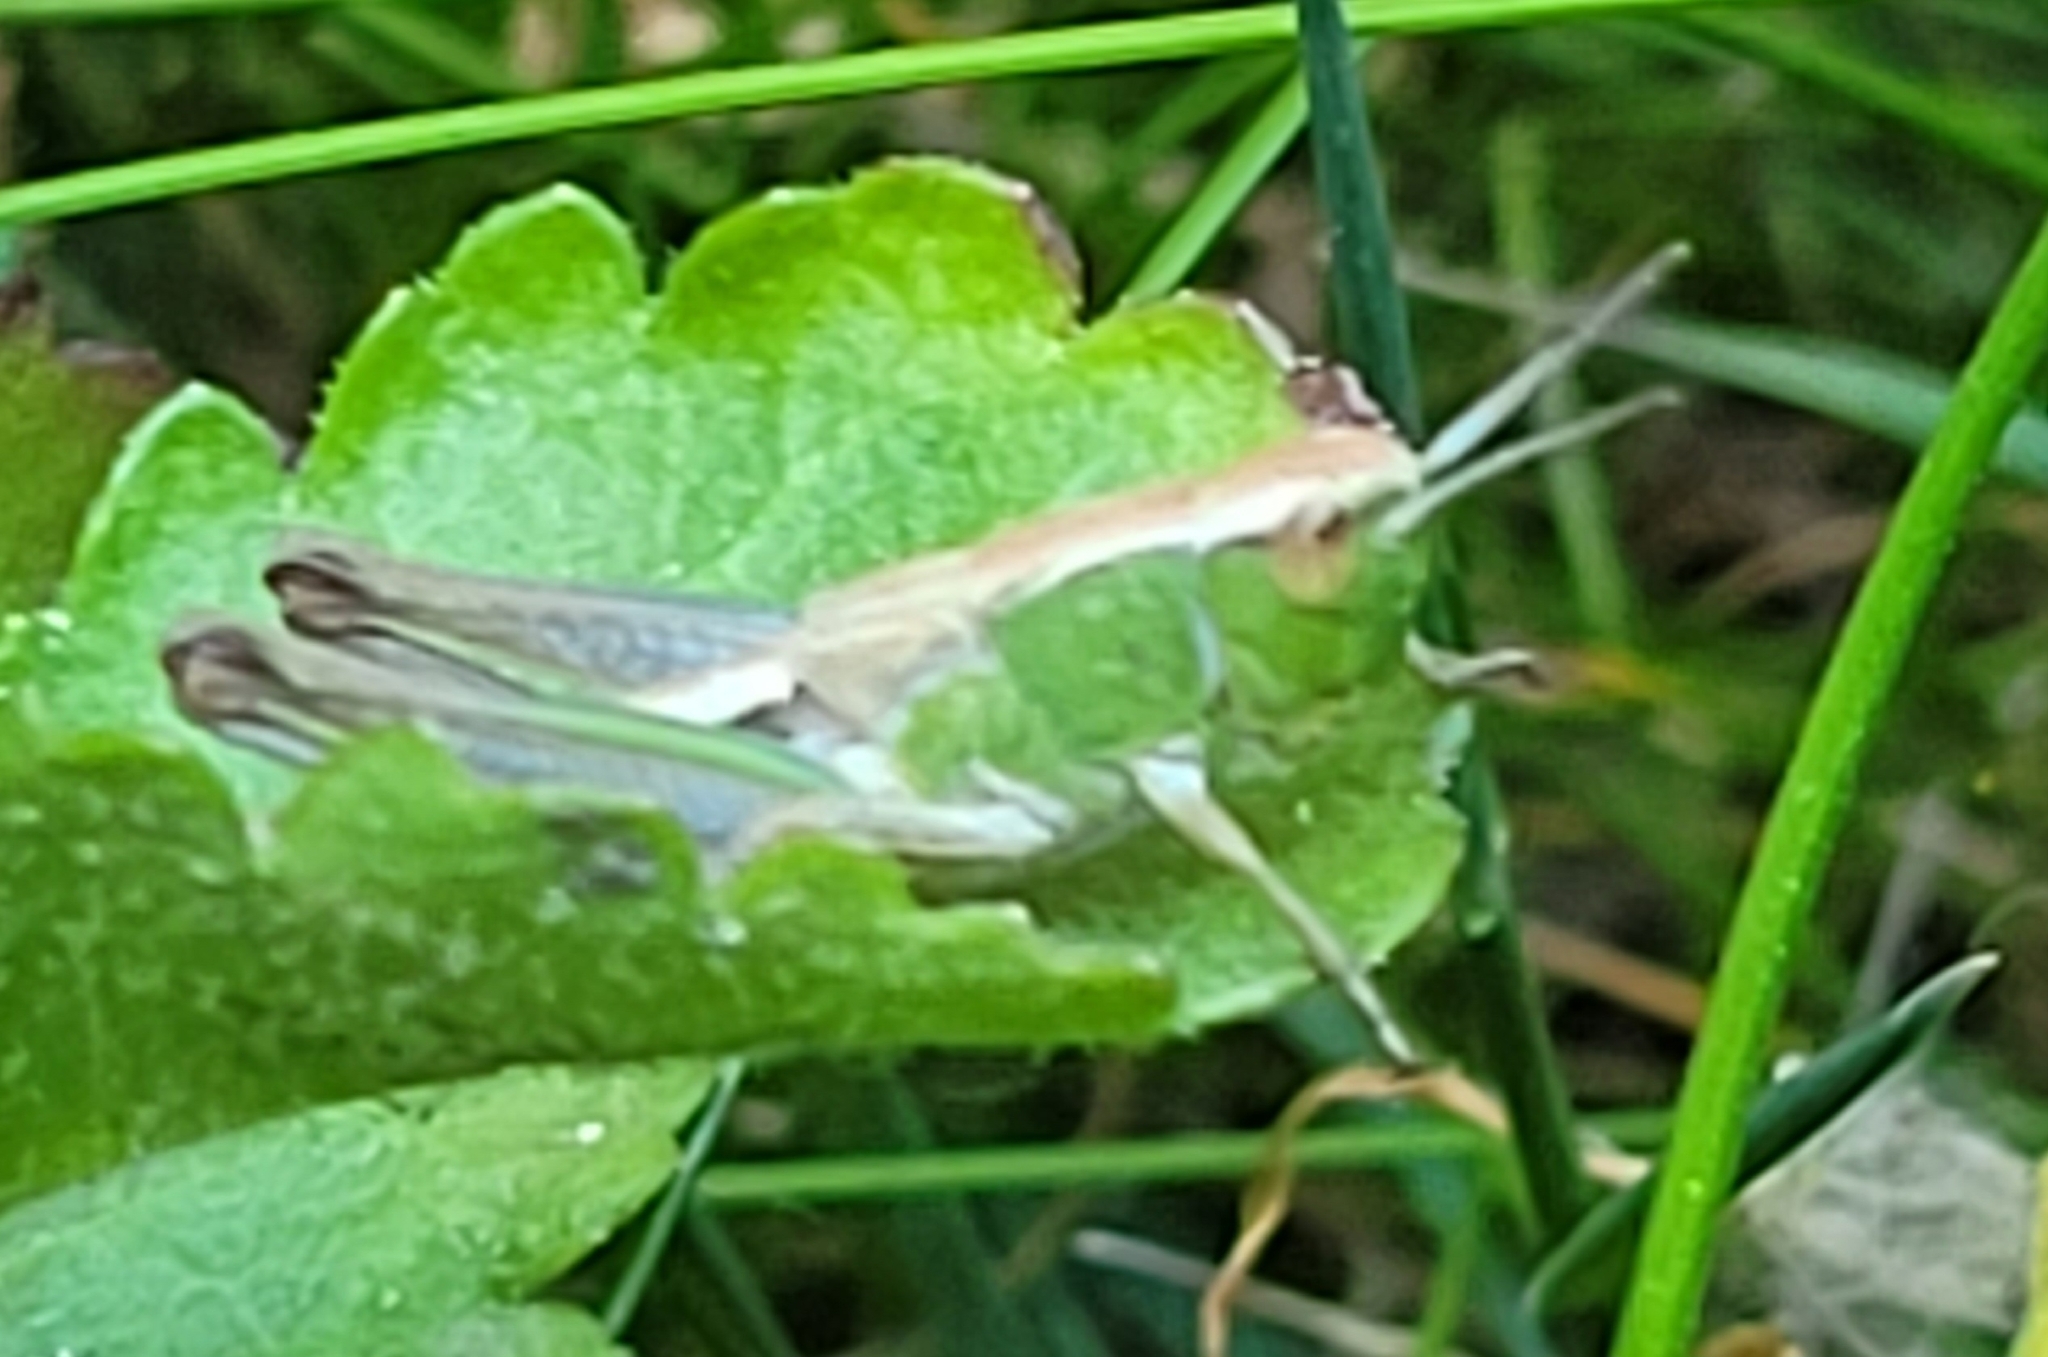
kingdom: Animalia
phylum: Arthropoda
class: Insecta
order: Orthoptera
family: Acrididae
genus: Pseudochorthippus
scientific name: Pseudochorthippus parallelus
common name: Meadow grasshopper
